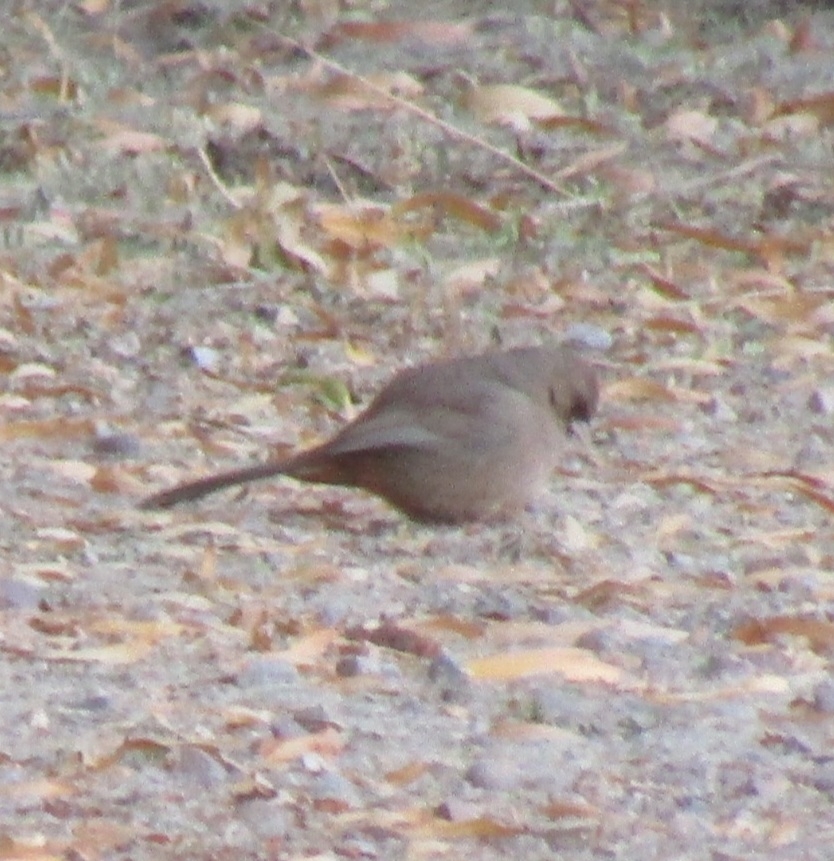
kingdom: Animalia
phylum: Chordata
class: Aves
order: Passeriformes
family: Passerellidae
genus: Melozone
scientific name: Melozone aberti
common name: Abert's towhee
